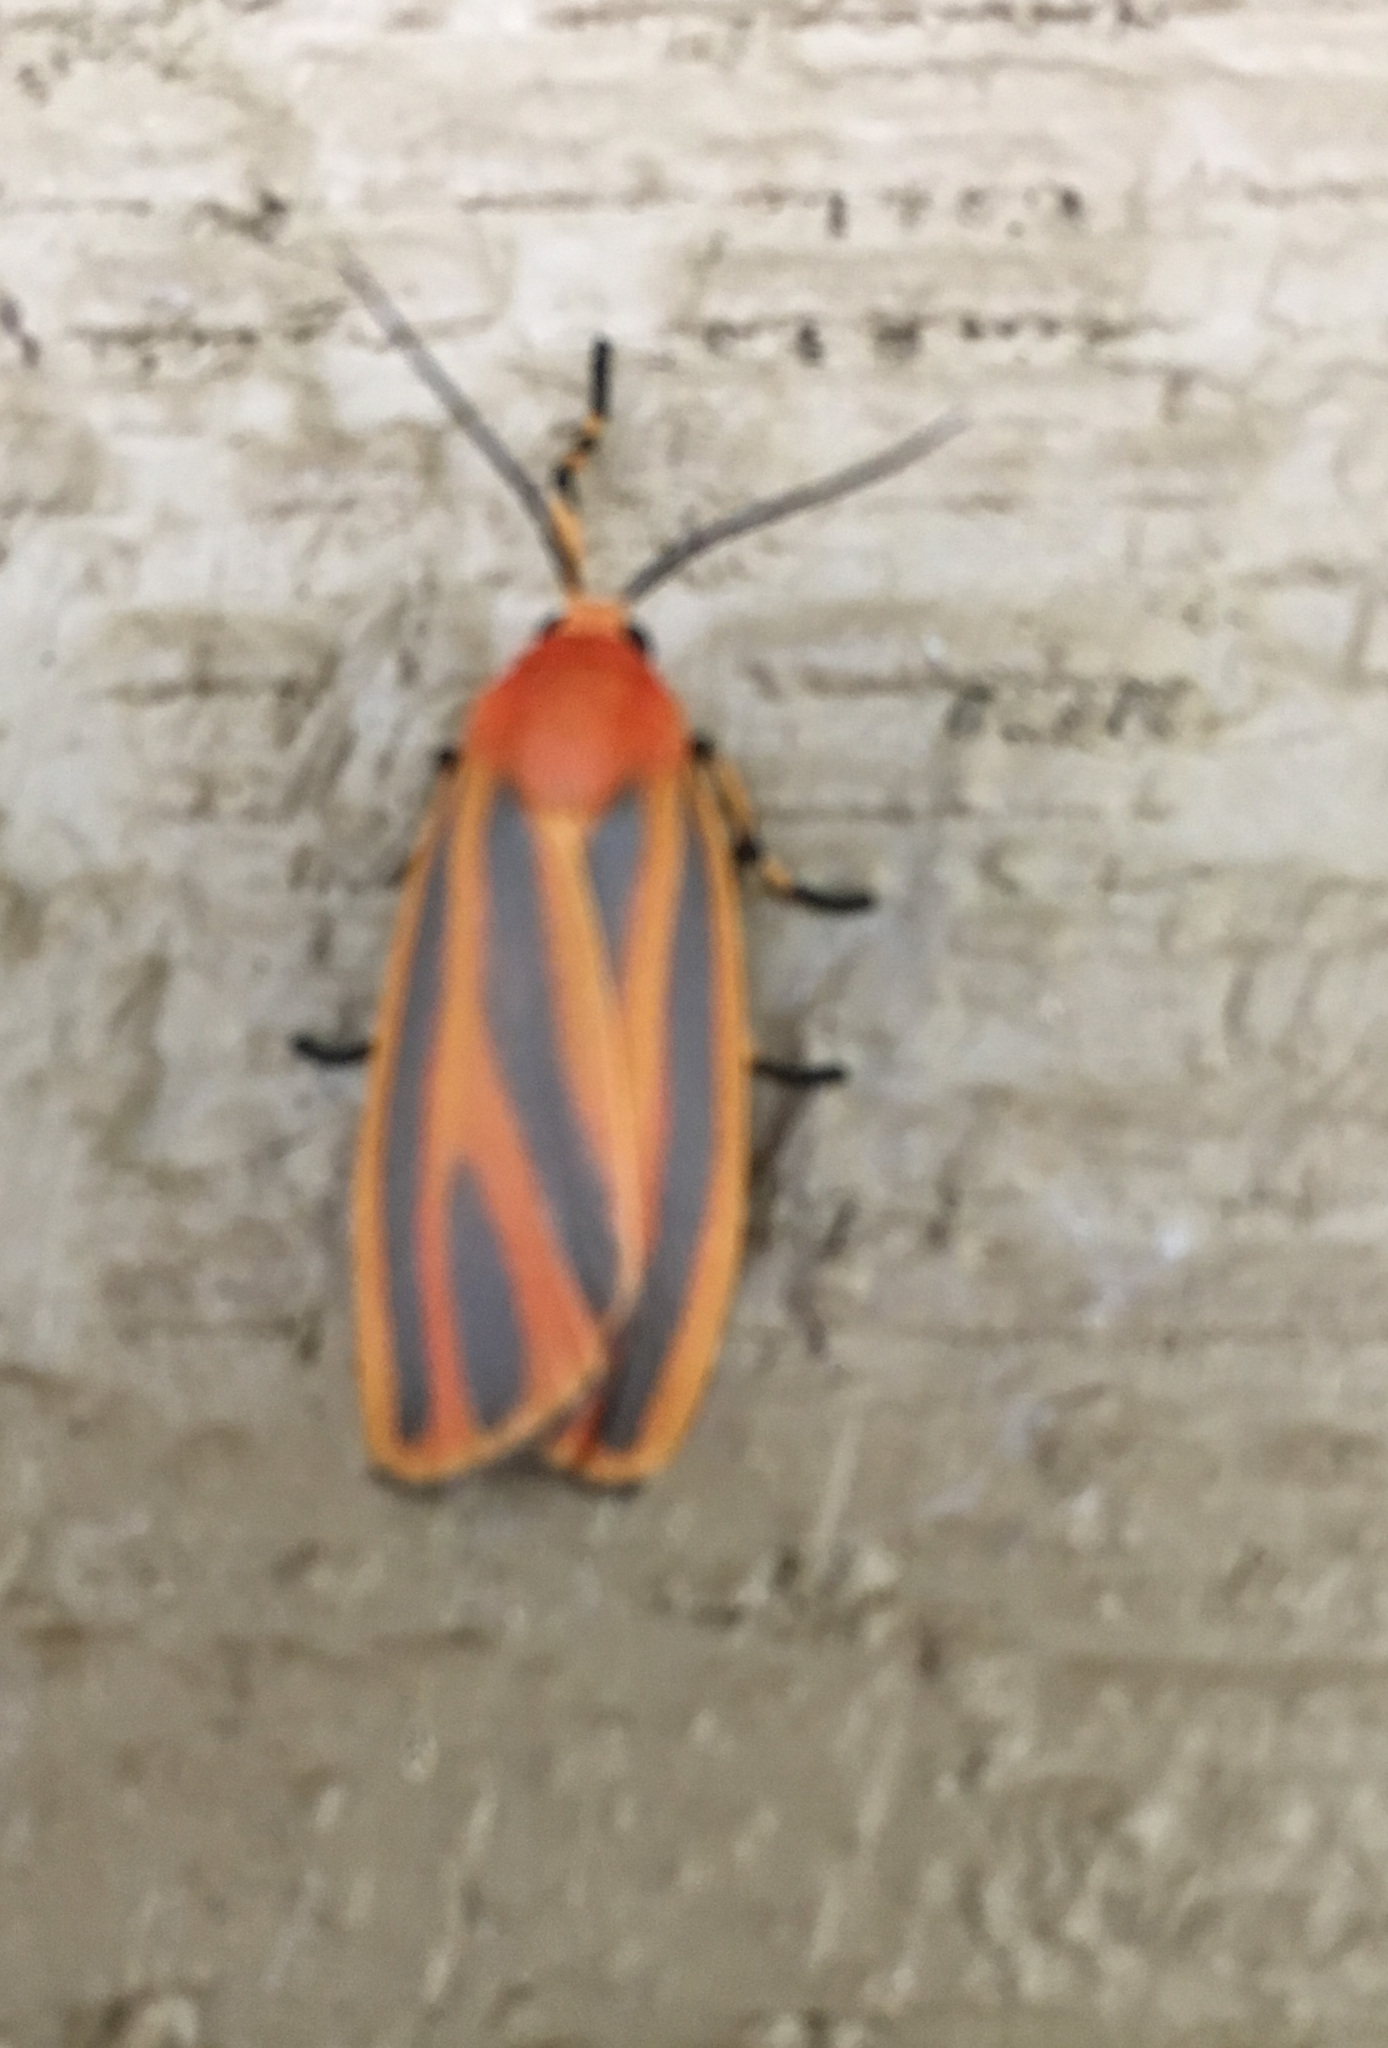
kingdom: Animalia
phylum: Arthropoda
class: Insecta
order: Lepidoptera
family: Erebidae
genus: Hypoprepia
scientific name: Hypoprepia miniata
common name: Scarlet-winged lichen moth
